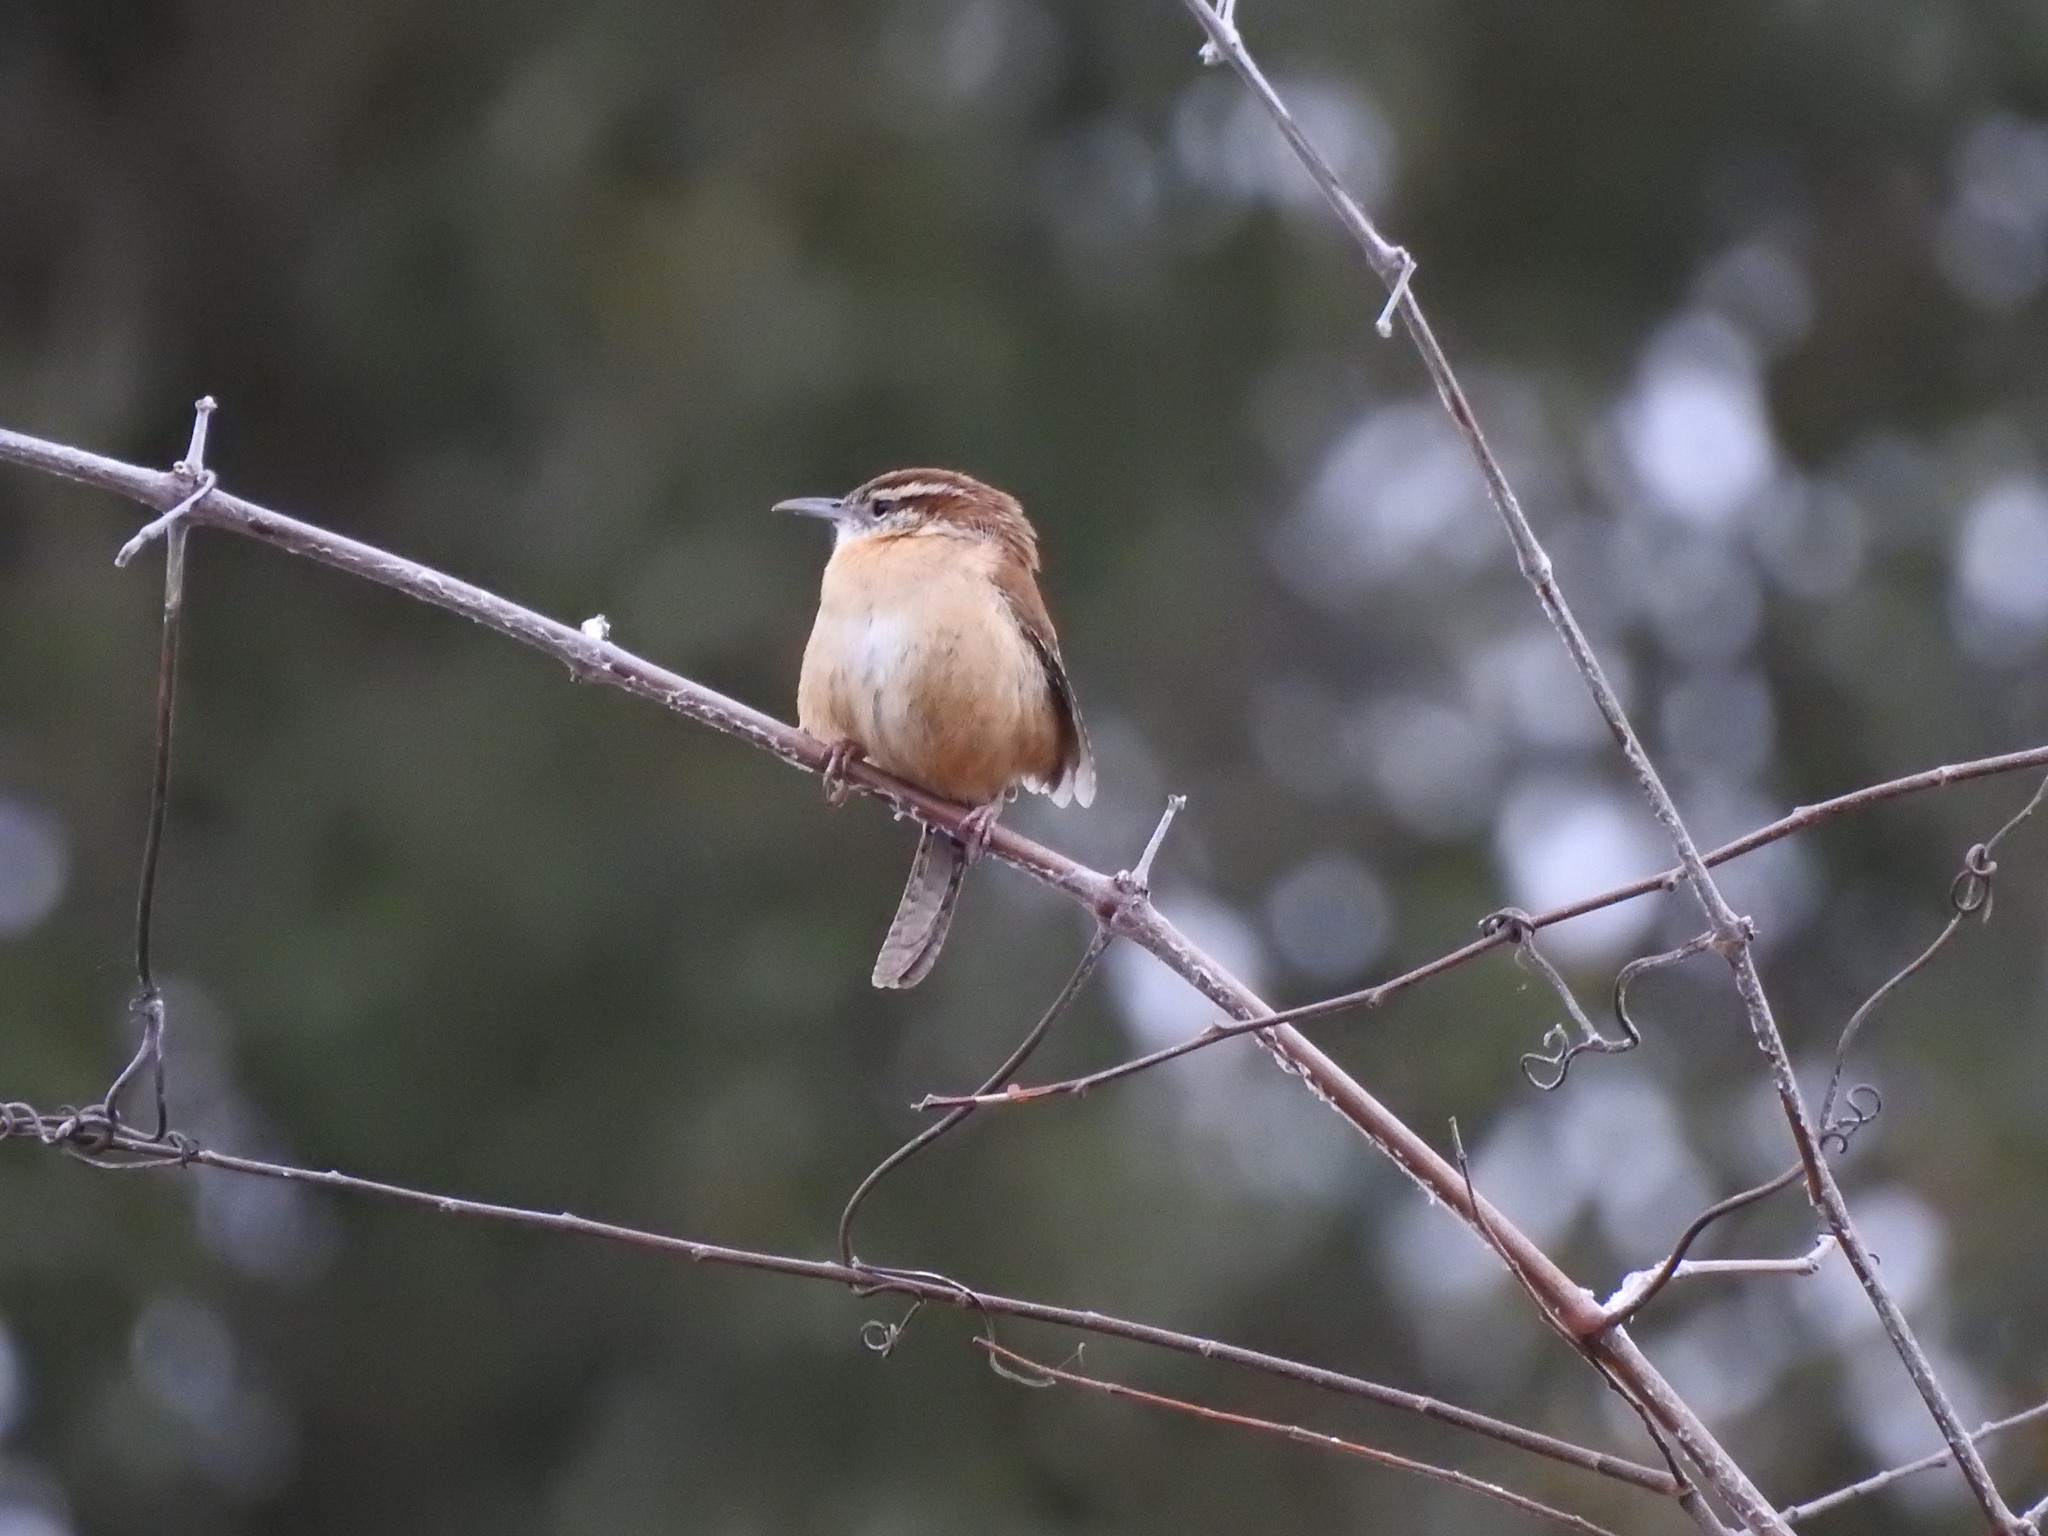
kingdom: Animalia
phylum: Chordata
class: Aves
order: Passeriformes
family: Troglodytidae
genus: Thryothorus
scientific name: Thryothorus ludovicianus
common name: Carolina wren
